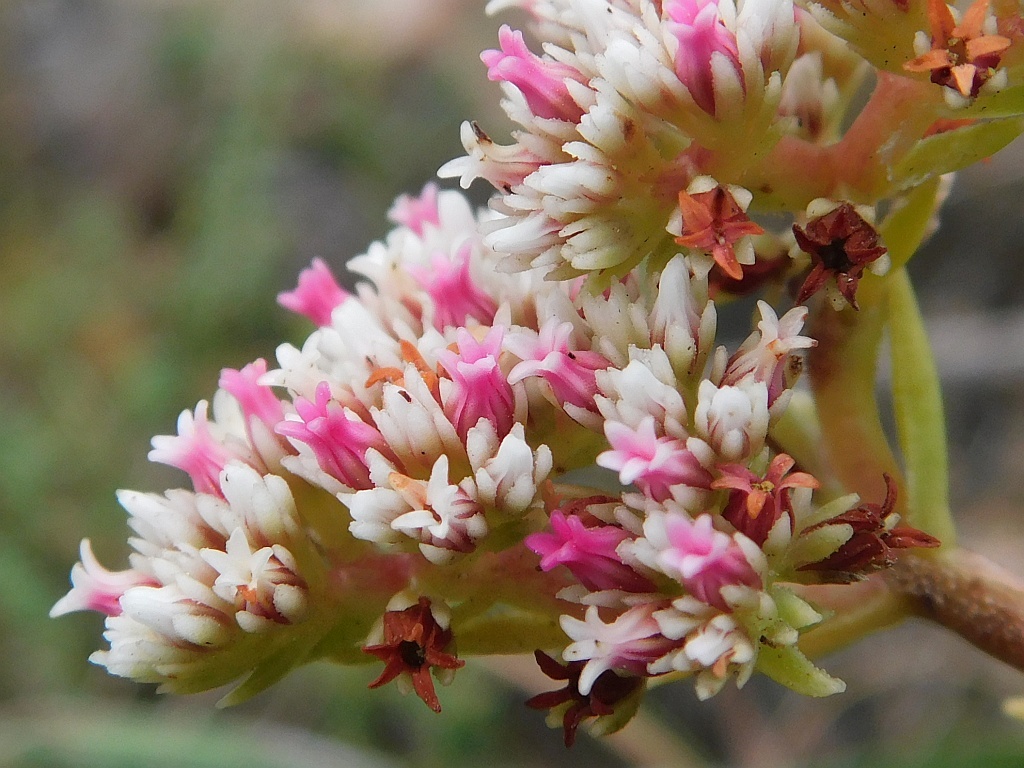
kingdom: Plantae
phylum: Tracheophyta
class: Magnoliopsida
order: Saxifragales
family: Crassulaceae
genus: Crassula
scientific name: Crassula subulata
